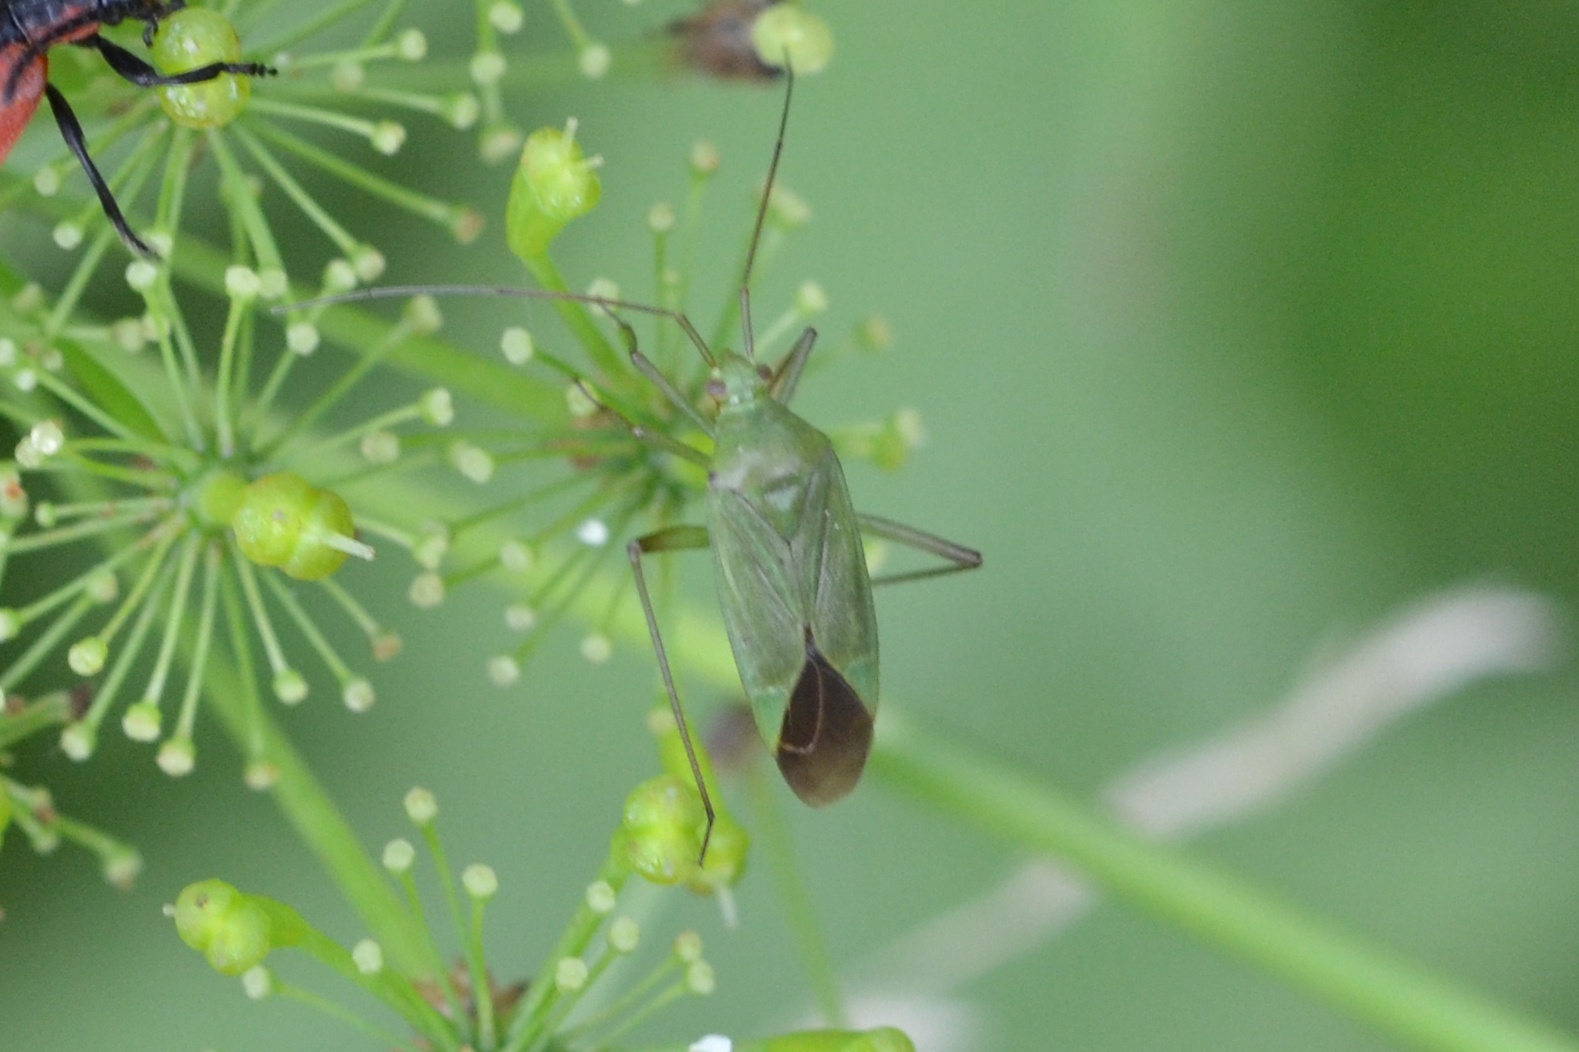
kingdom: Animalia
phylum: Arthropoda
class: Insecta
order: Hemiptera
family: Miridae
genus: Calocoris
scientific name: Calocoris affinis
